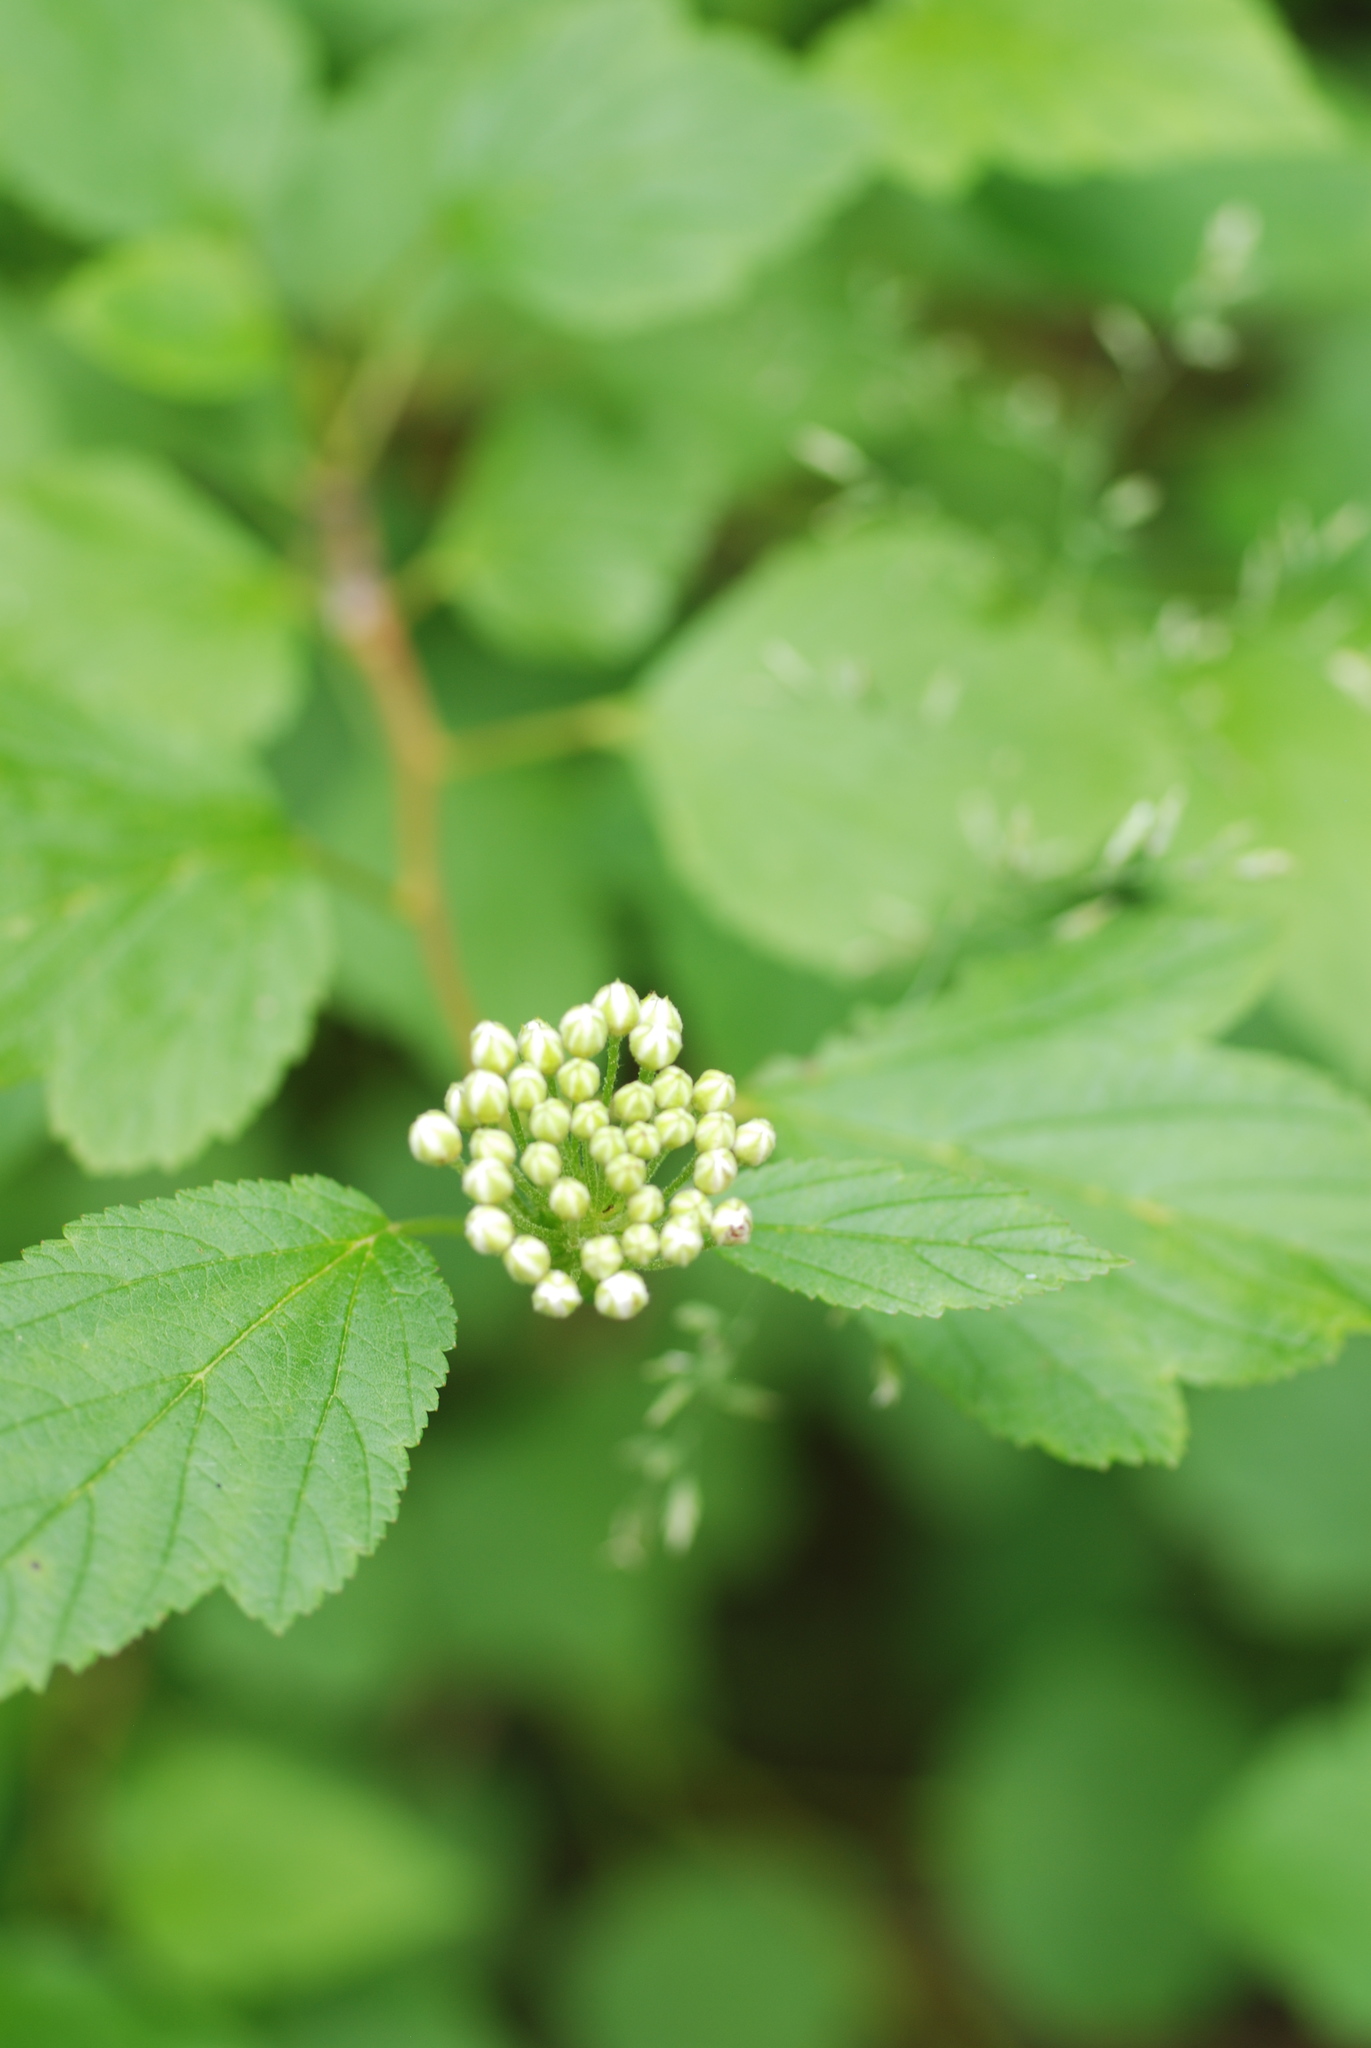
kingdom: Plantae
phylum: Tracheophyta
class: Magnoliopsida
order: Rosales
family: Rosaceae
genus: Physocarpus
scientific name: Physocarpus opulifolius
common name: Ninebark
